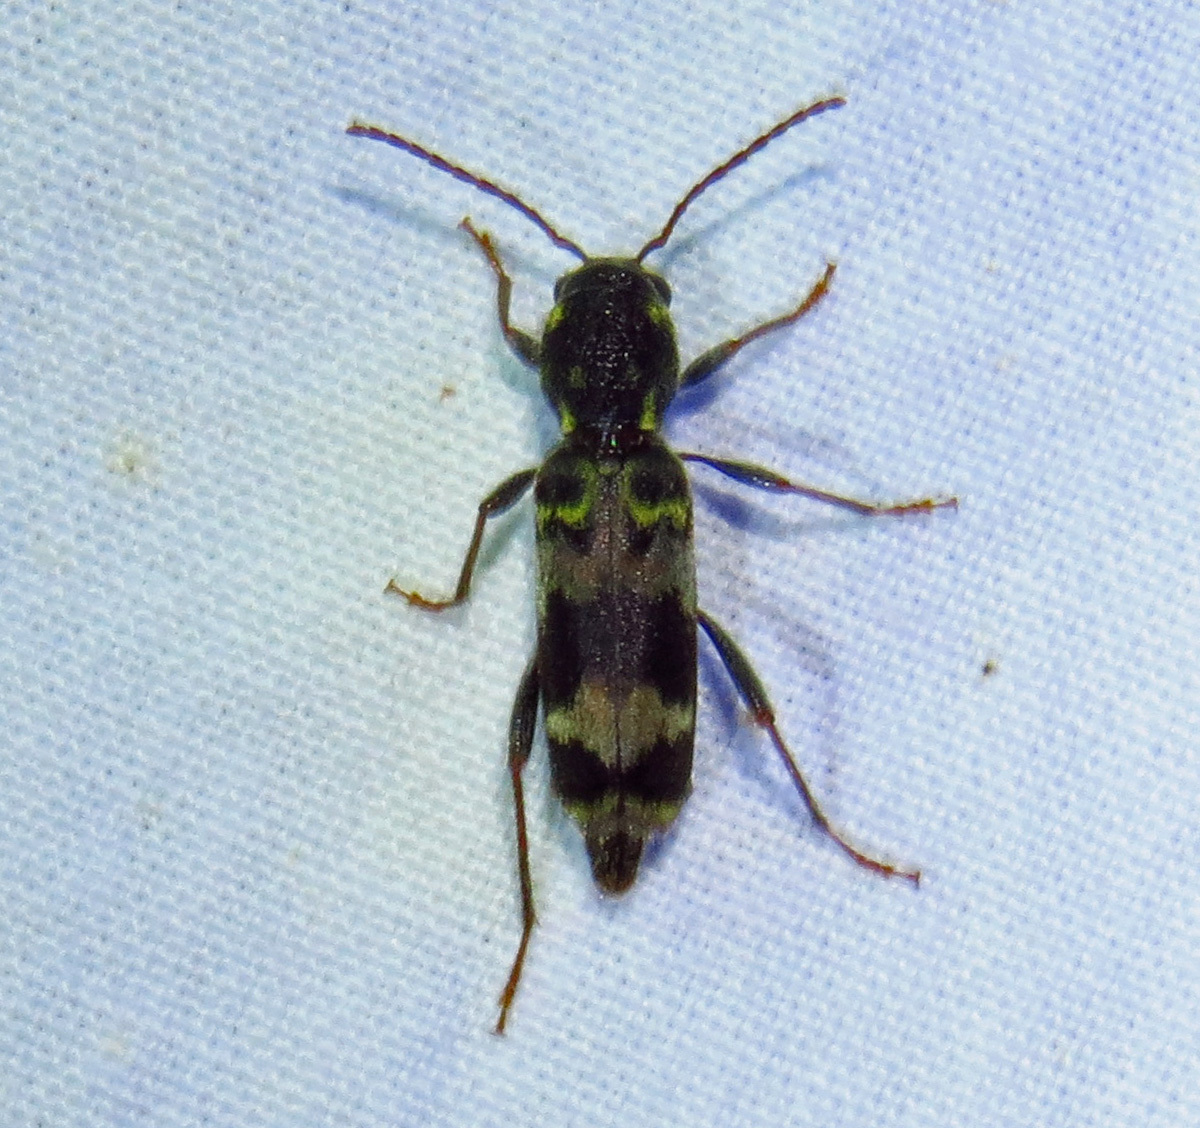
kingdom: Animalia
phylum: Arthropoda
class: Insecta
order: Coleoptera
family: Cerambycidae
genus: Xylotrechus
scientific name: Xylotrechus colonus
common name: Long-horned beetle
